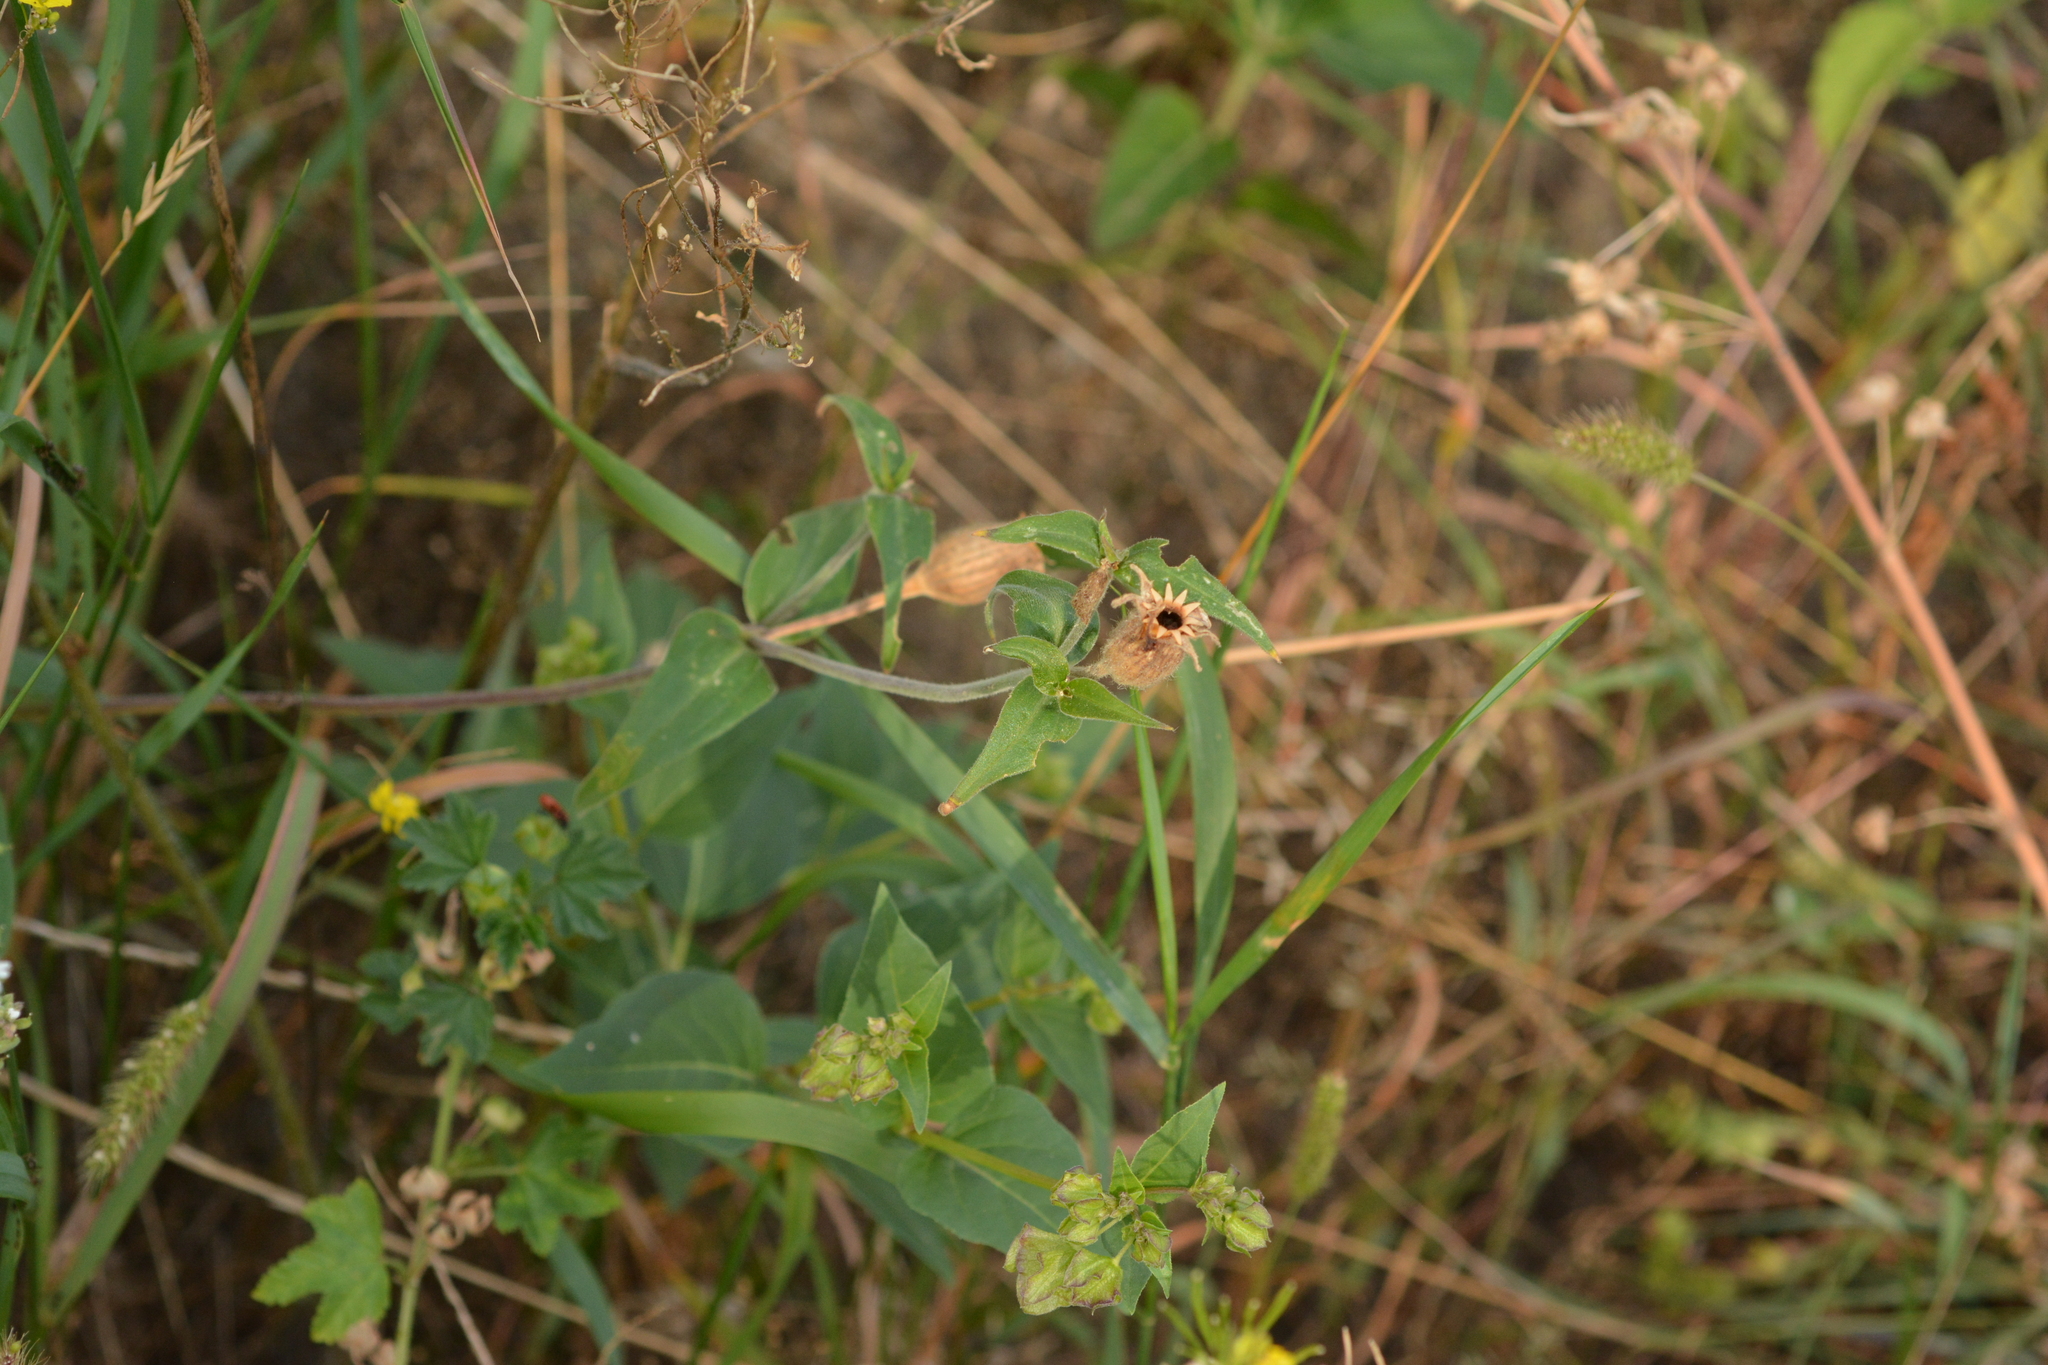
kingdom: Plantae
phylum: Tracheophyta
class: Magnoliopsida
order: Caryophyllales
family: Nyctaginaceae
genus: Mirabilis
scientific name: Mirabilis nyctaginea
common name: Umbrella wort
